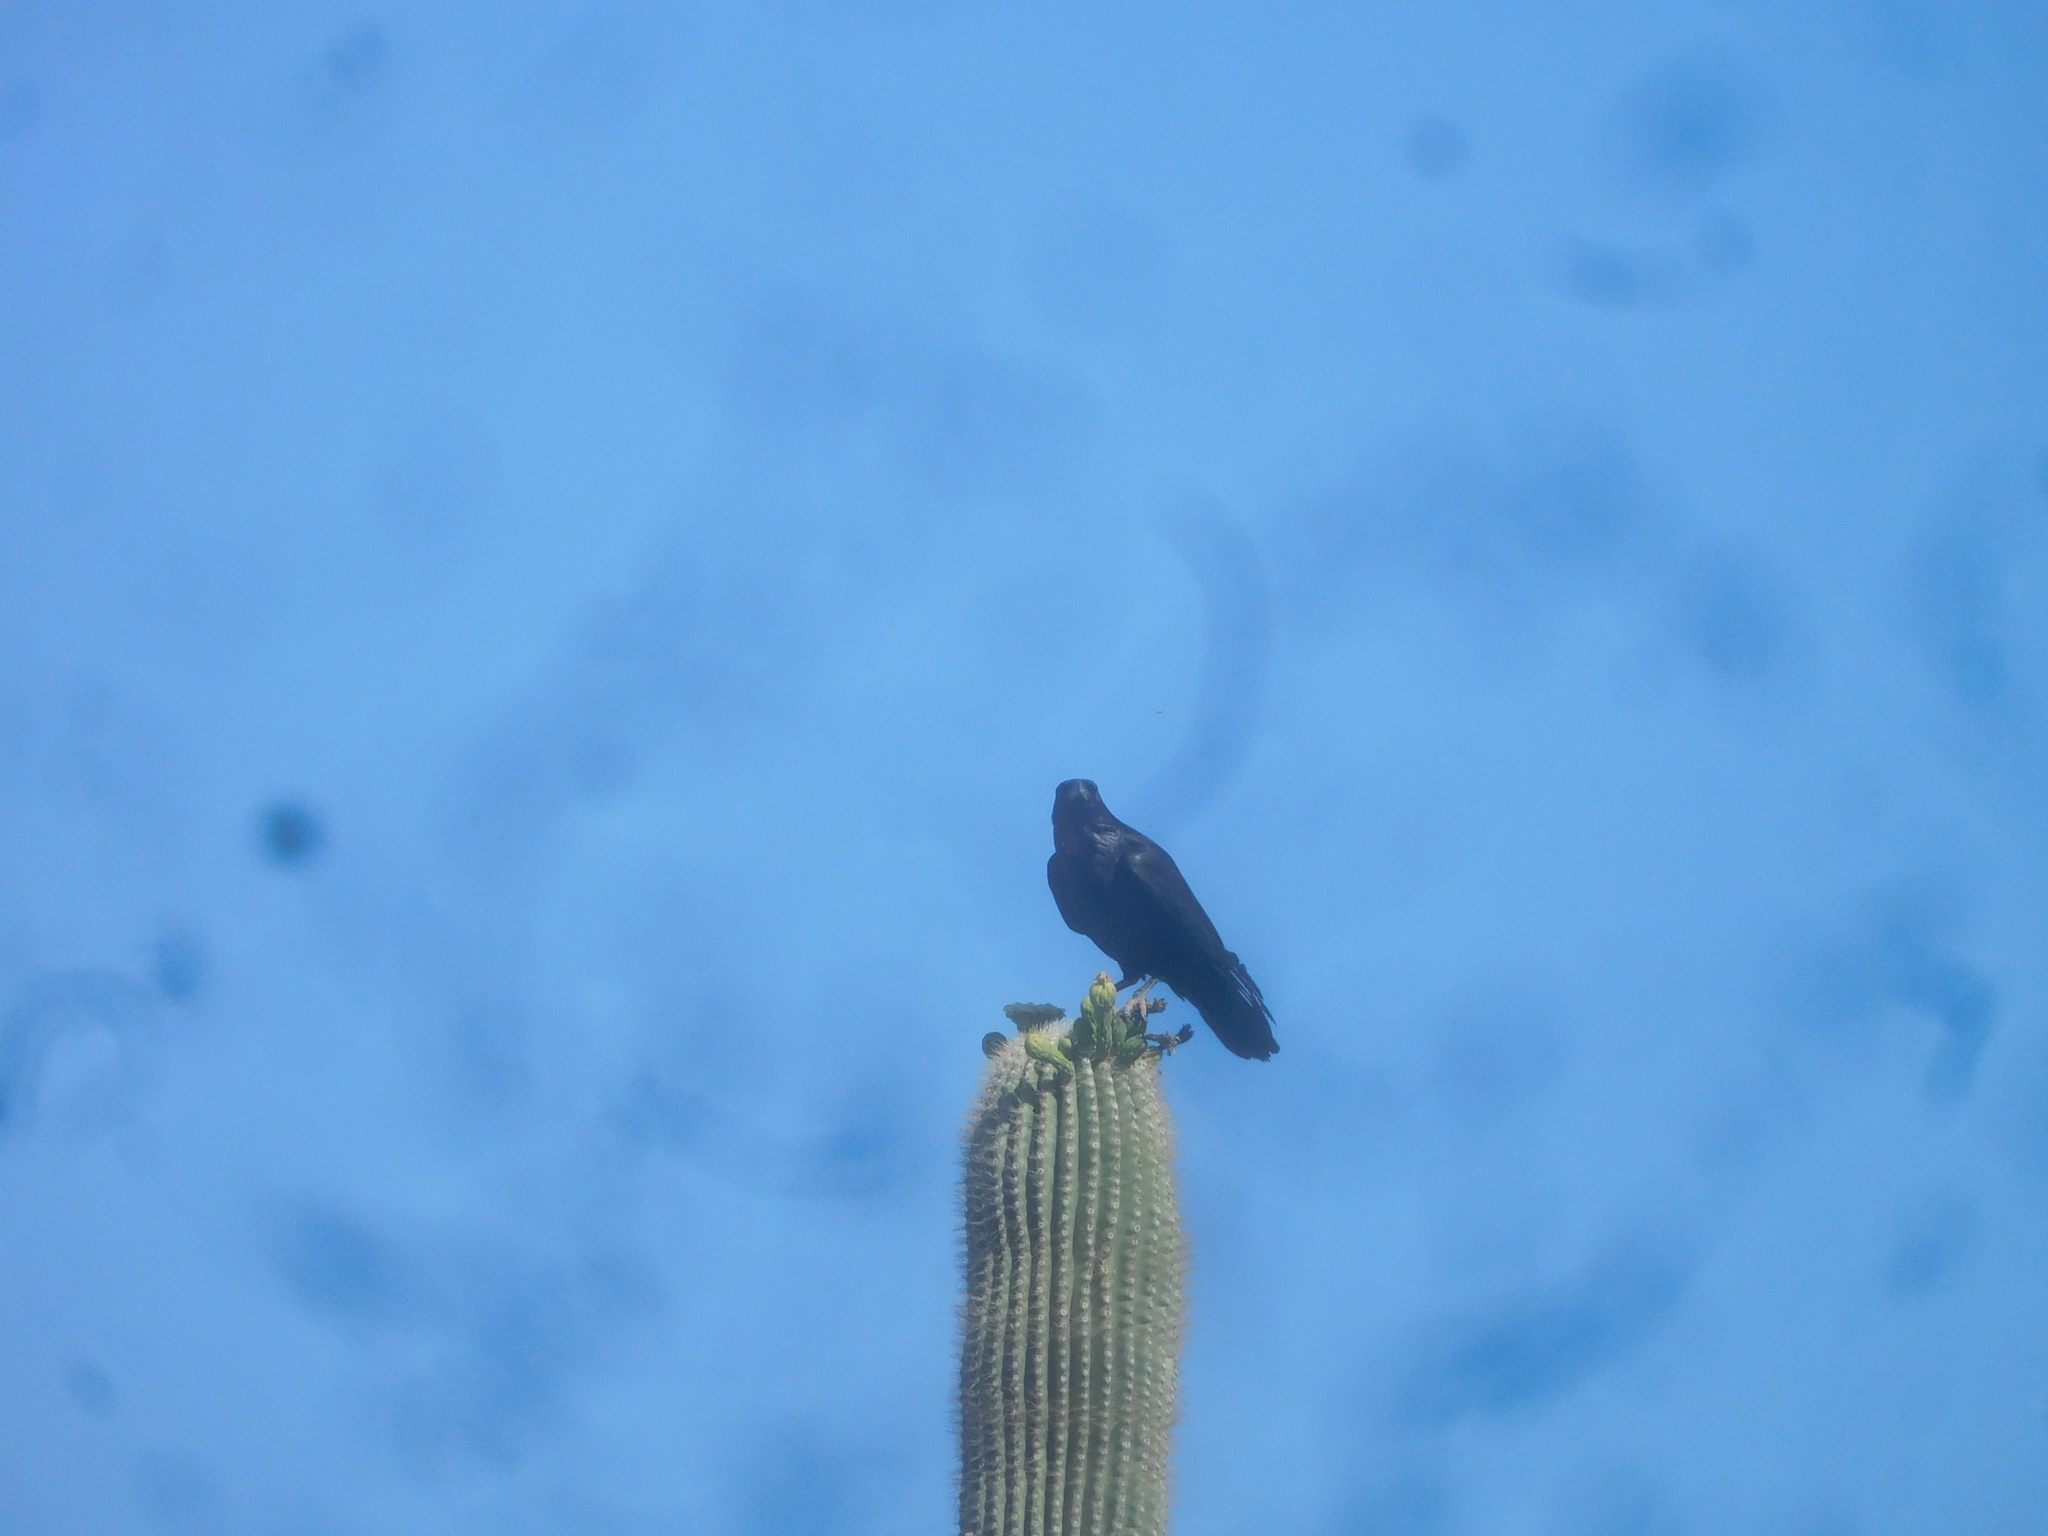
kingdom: Animalia
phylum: Chordata
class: Aves
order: Passeriformes
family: Corvidae
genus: Corvus
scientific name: Corvus corax
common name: Common raven
